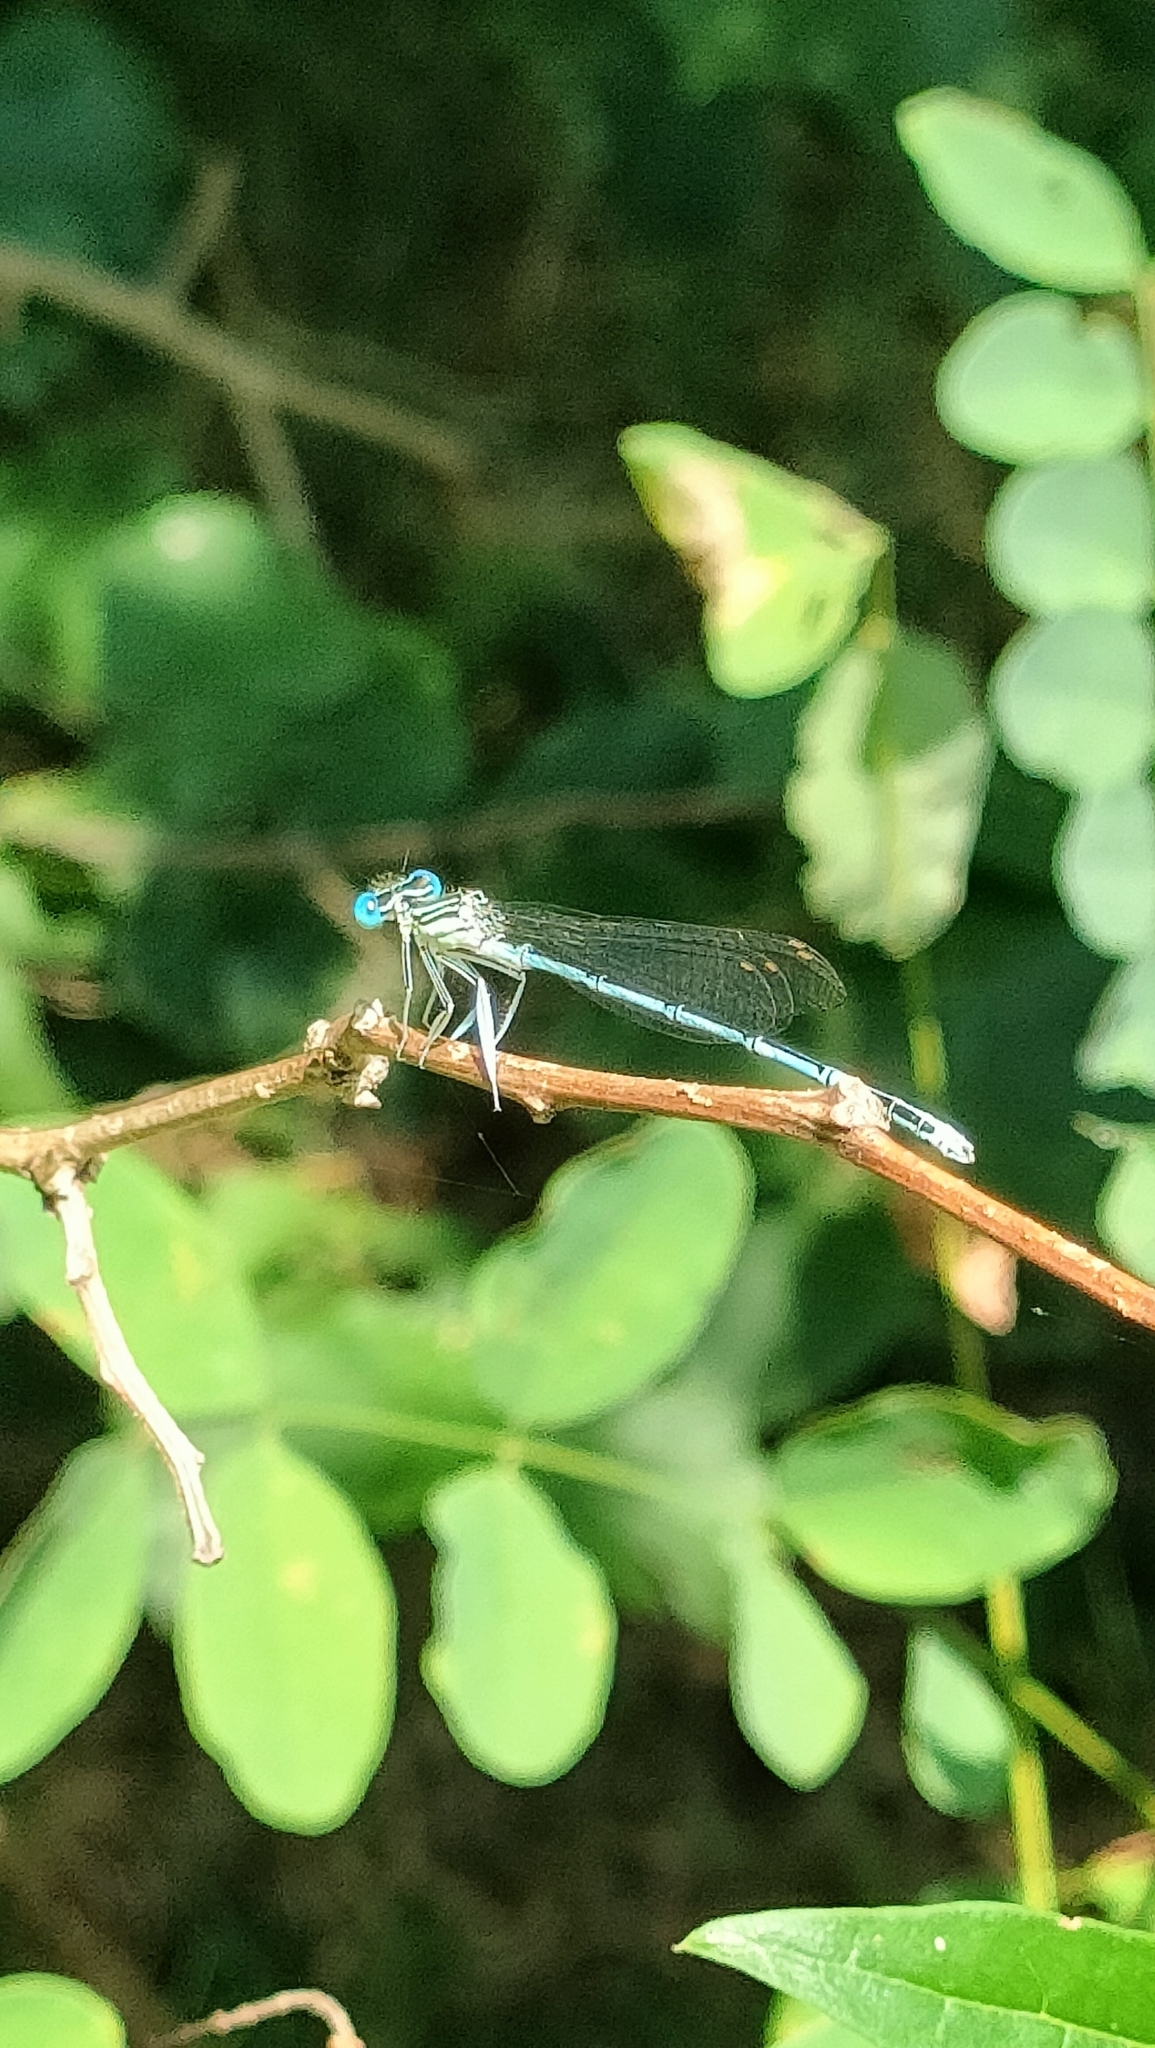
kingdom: Animalia
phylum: Arthropoda
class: Insecta
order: Odonata
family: Platycnemididae
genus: Platycnemis
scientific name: Platycnemis pennipes
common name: White-legged damselfly
